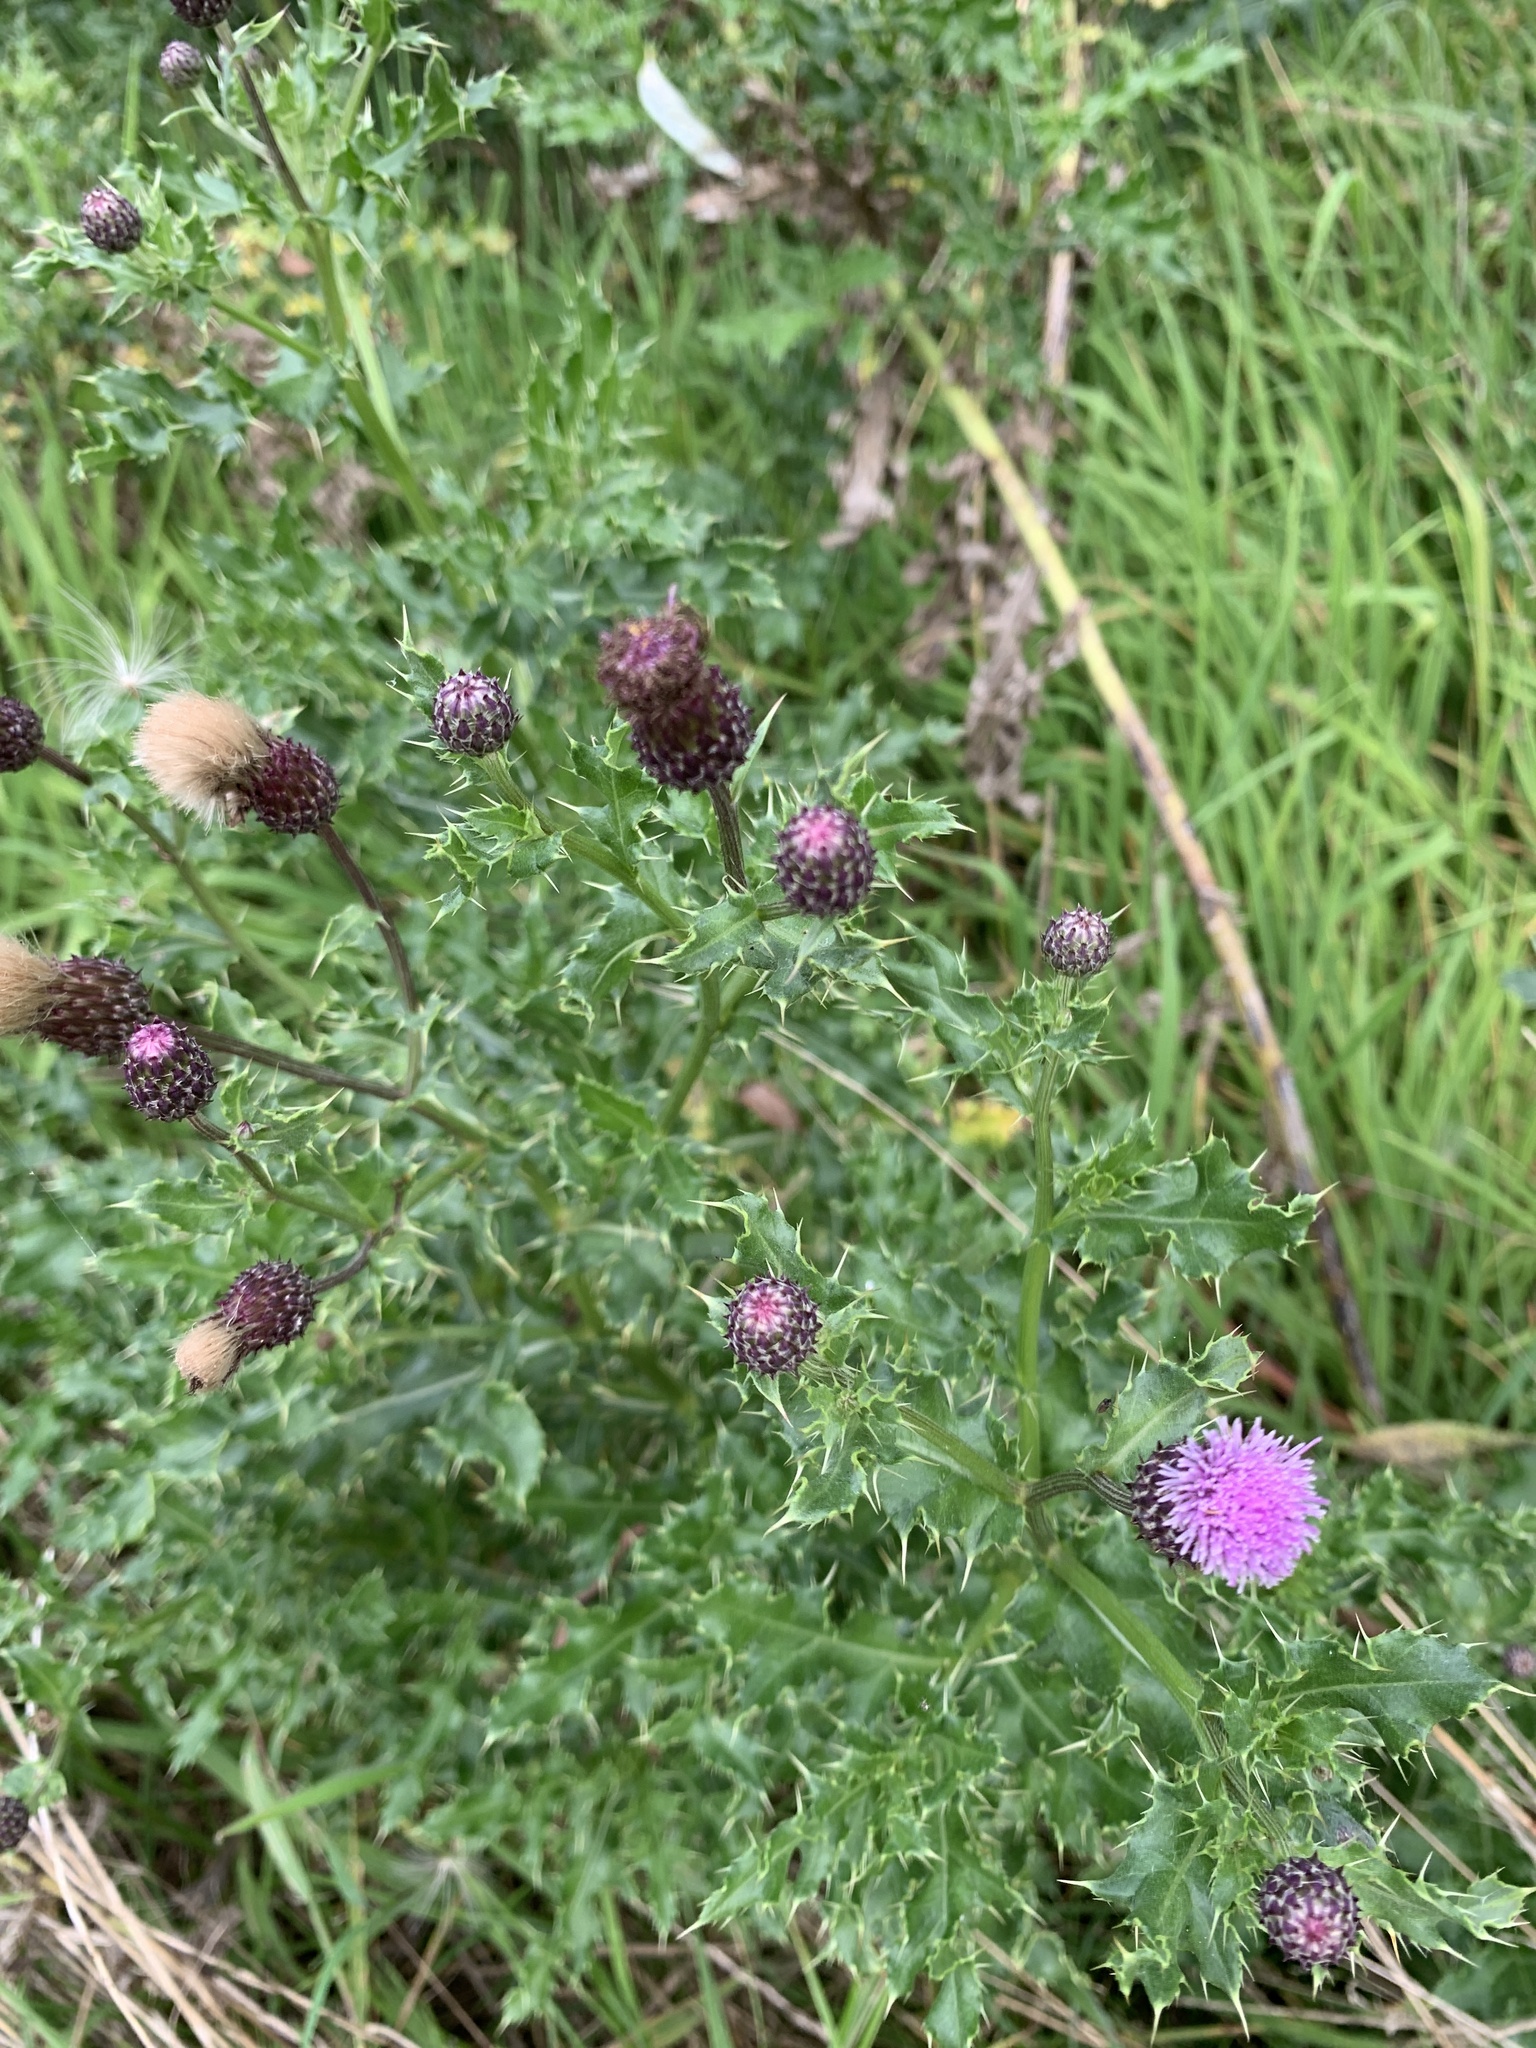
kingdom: Plantae
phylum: Tracheophyta
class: Magnoliopsida
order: Asterales
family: Asteraceae
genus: Cirsium
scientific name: Cirsium arvense
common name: Creeping thistle
